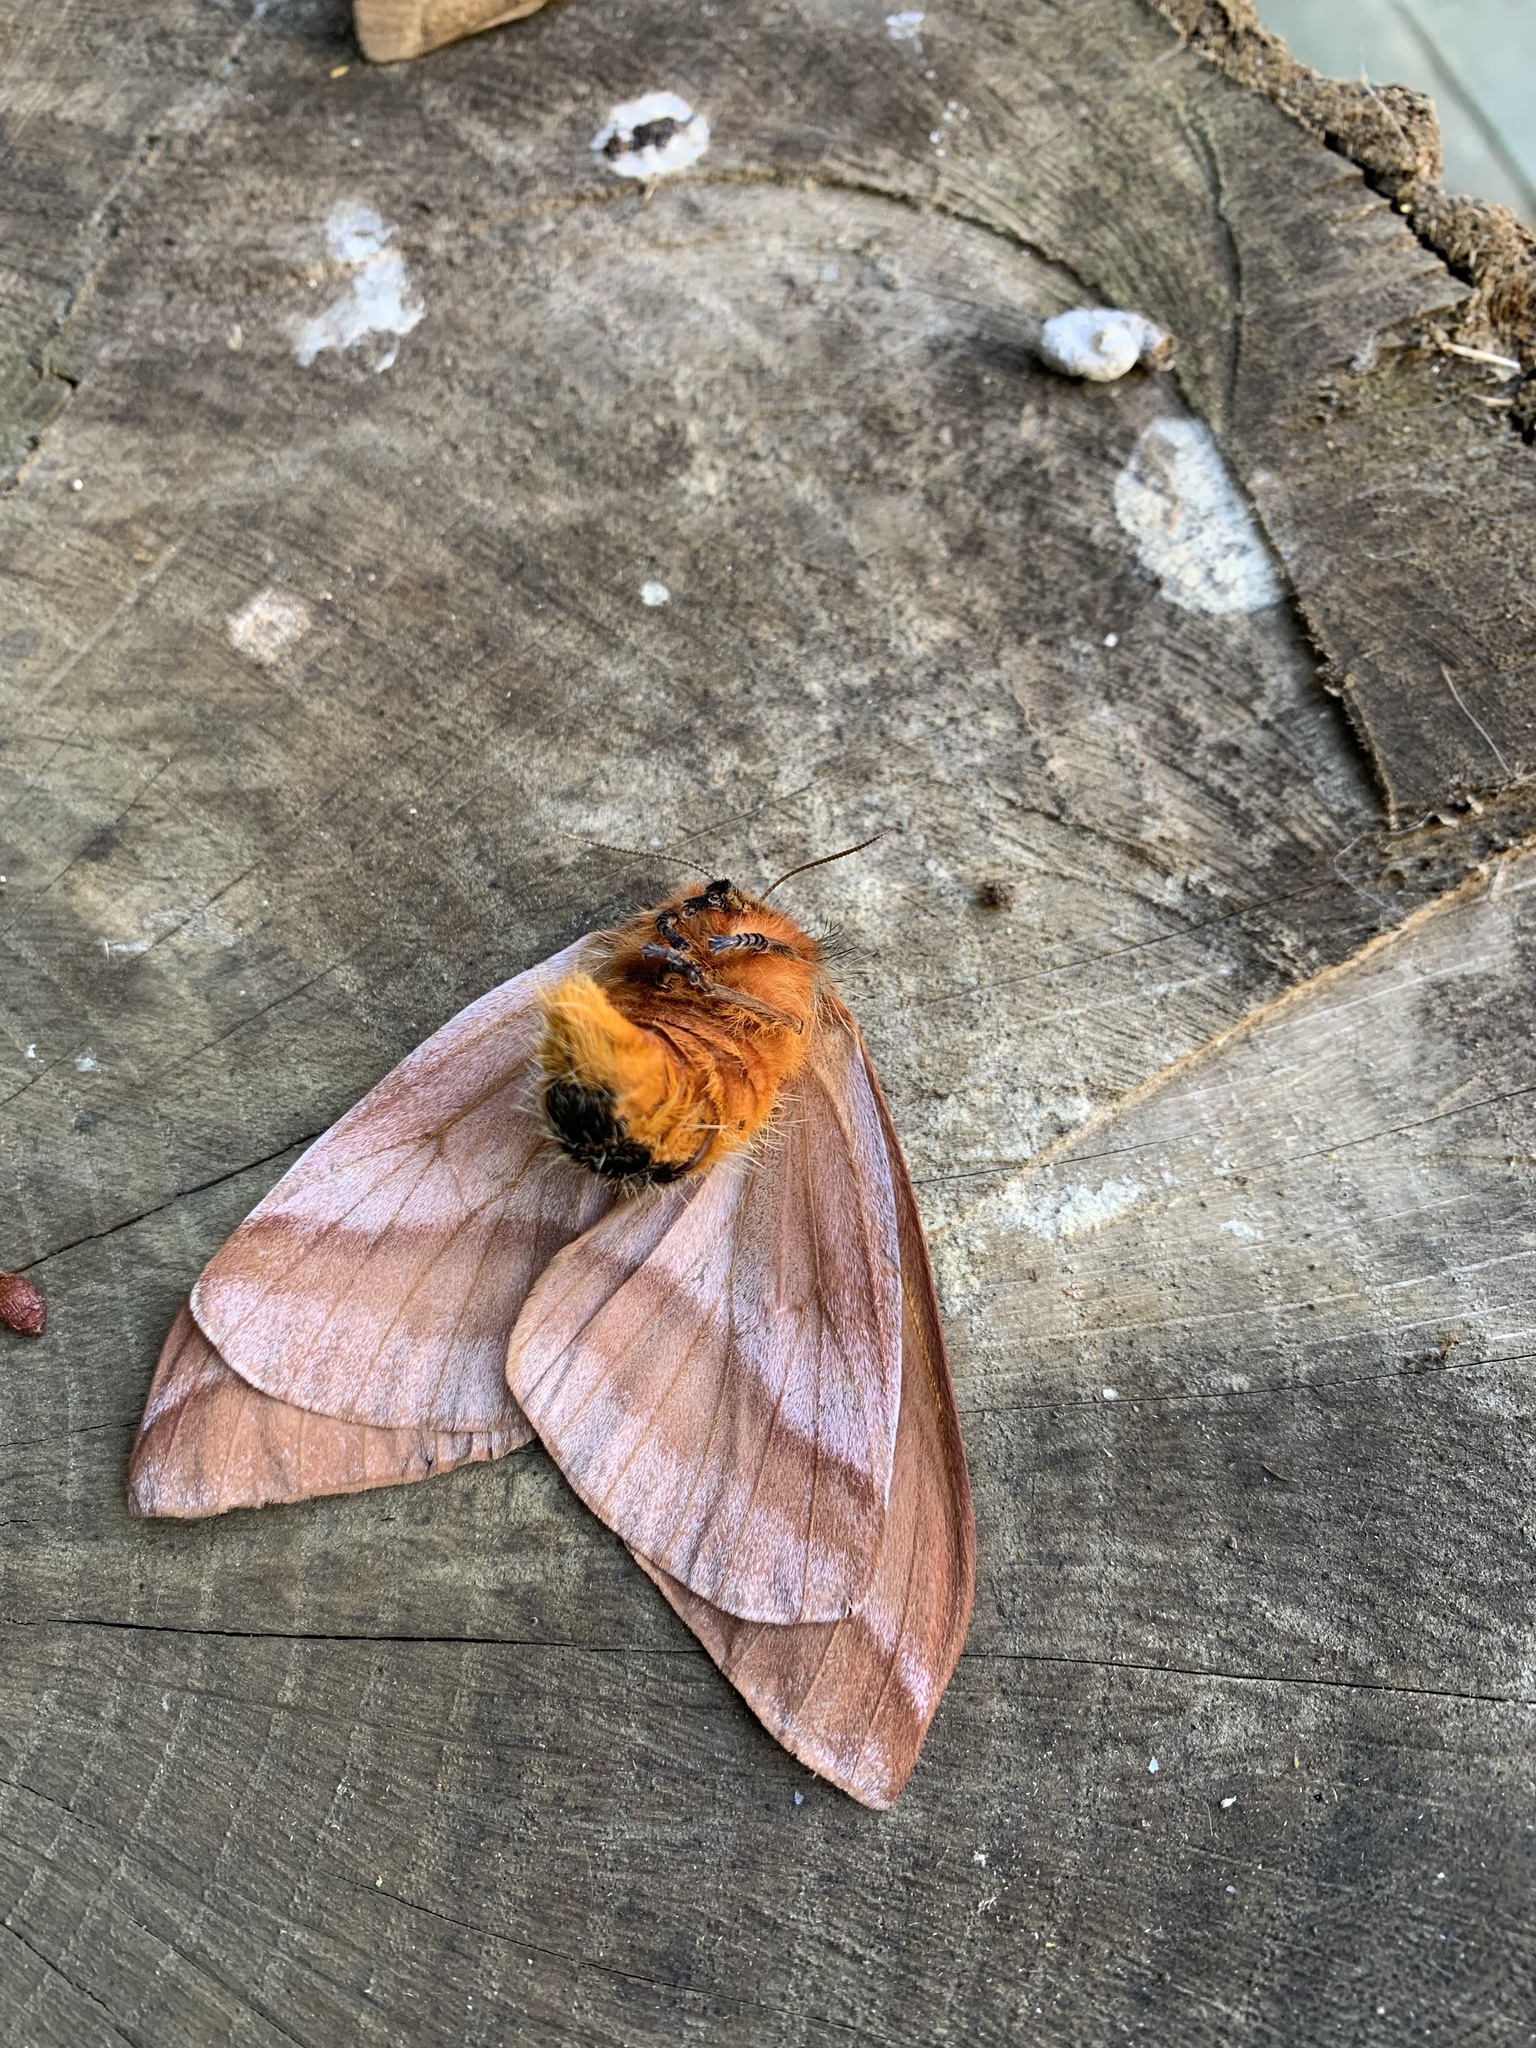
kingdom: Animalia
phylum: Arthropoda
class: Insecta
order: Lepidoptera
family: Saturniidae
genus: Ormiscodes
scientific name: Ormiscodes cinnamomea
